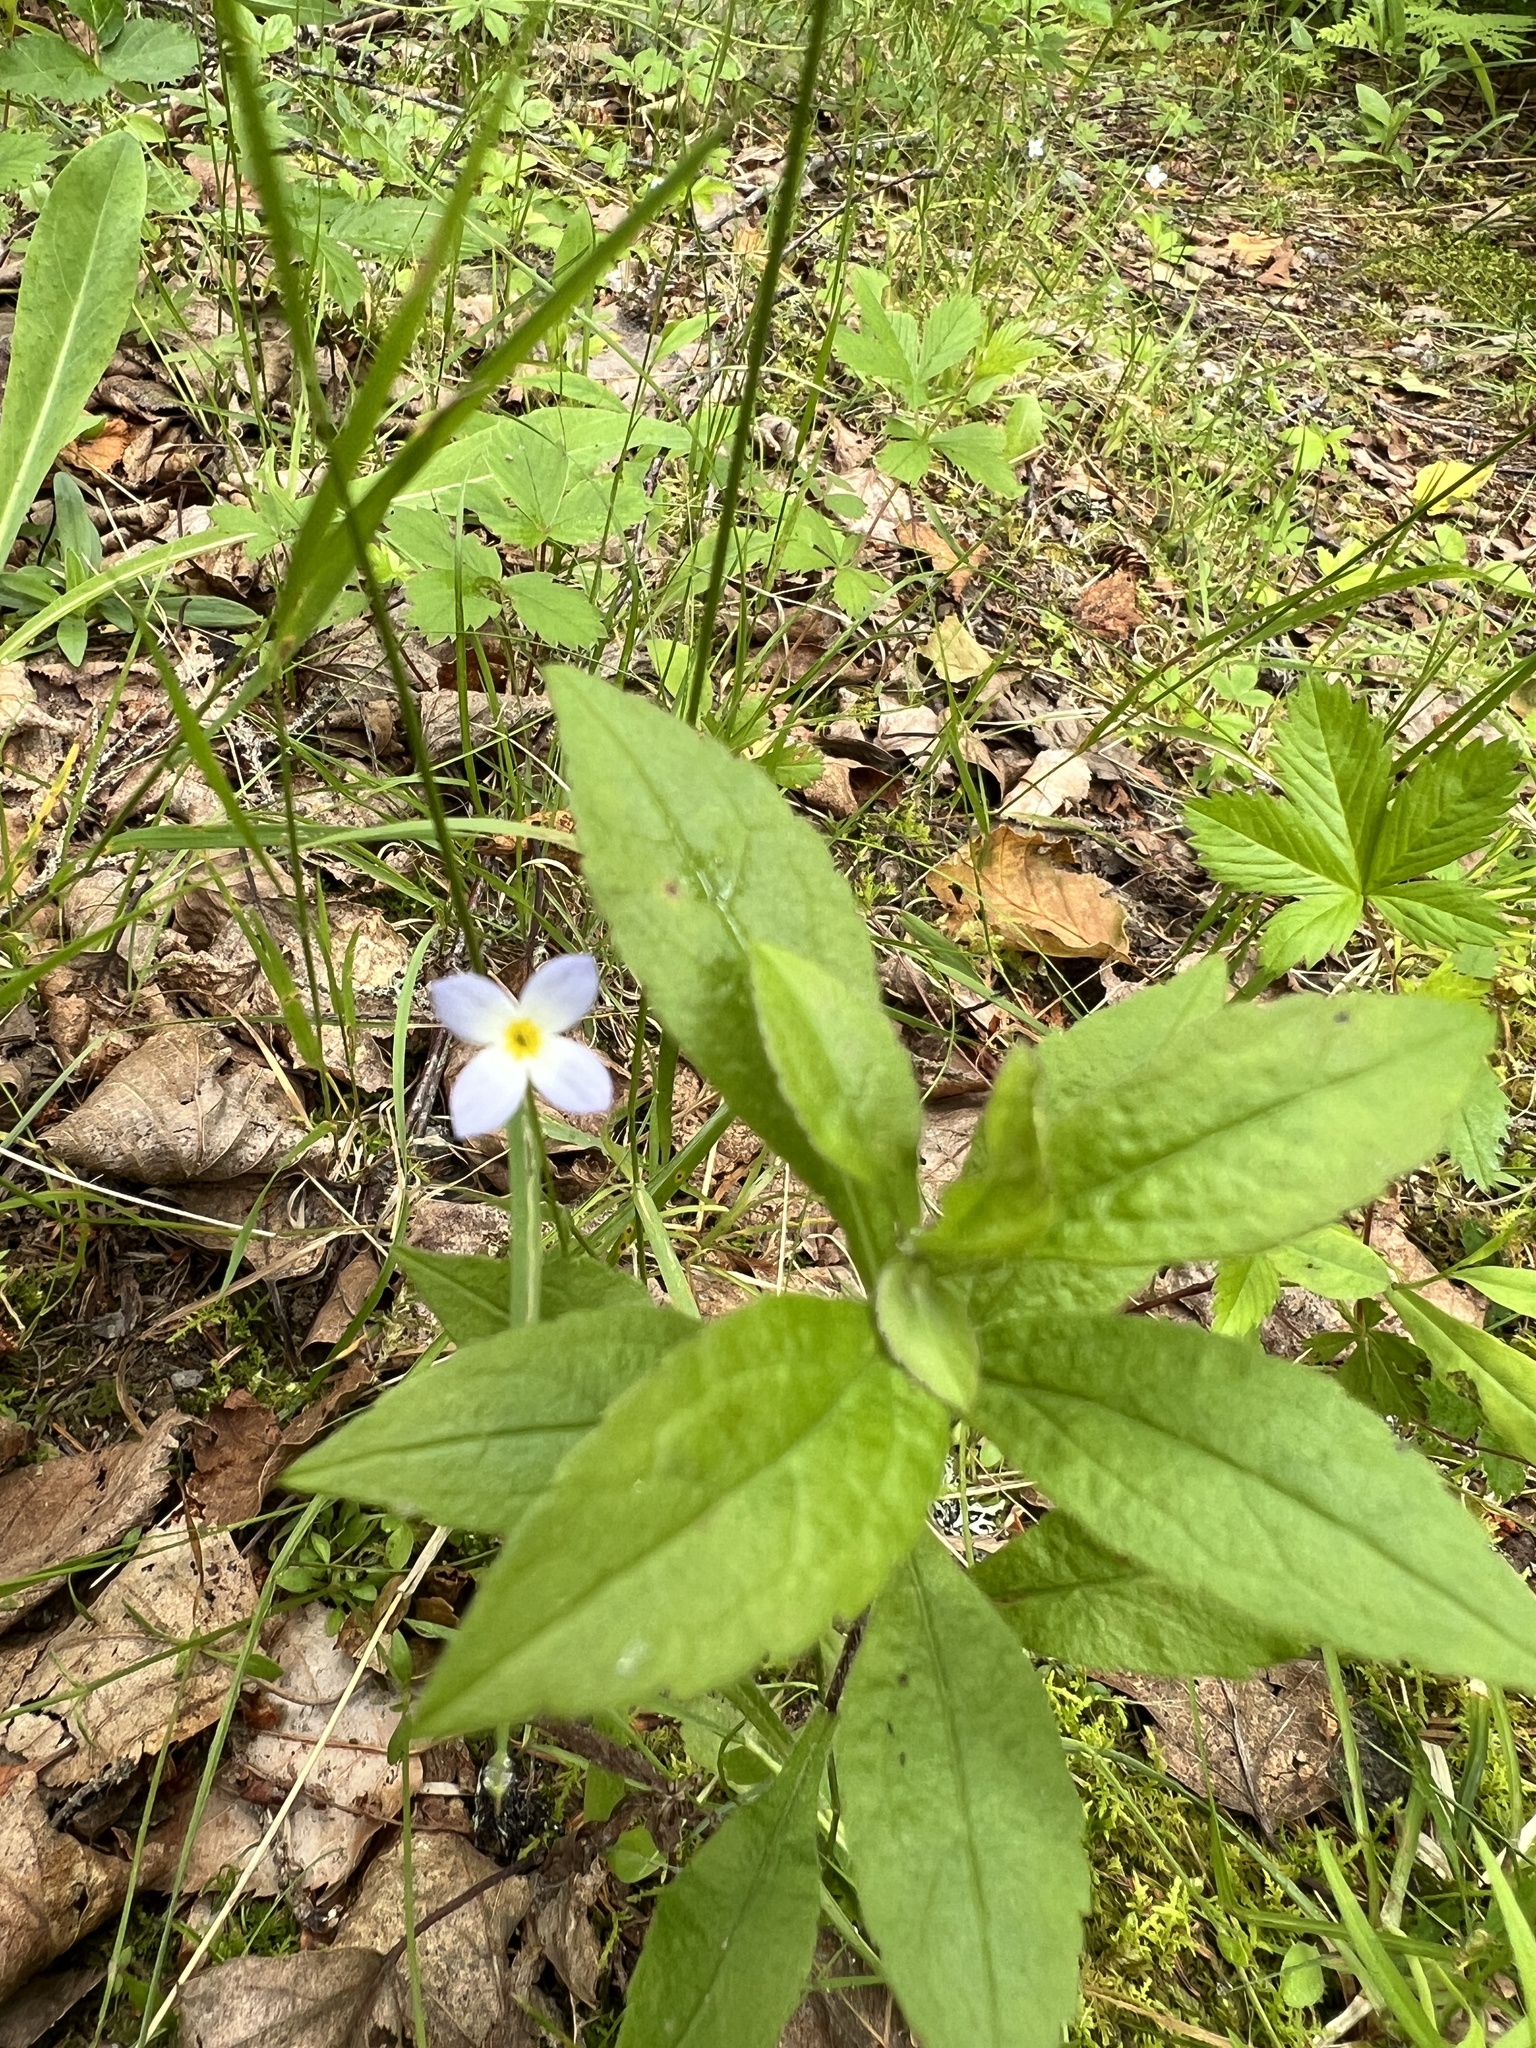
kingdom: Plantae
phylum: Tracheophyta
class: Magnoliopsida
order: Gentianales
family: Rubiaceae
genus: Houstonia
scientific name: Houstonia caerulea
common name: Bluets
